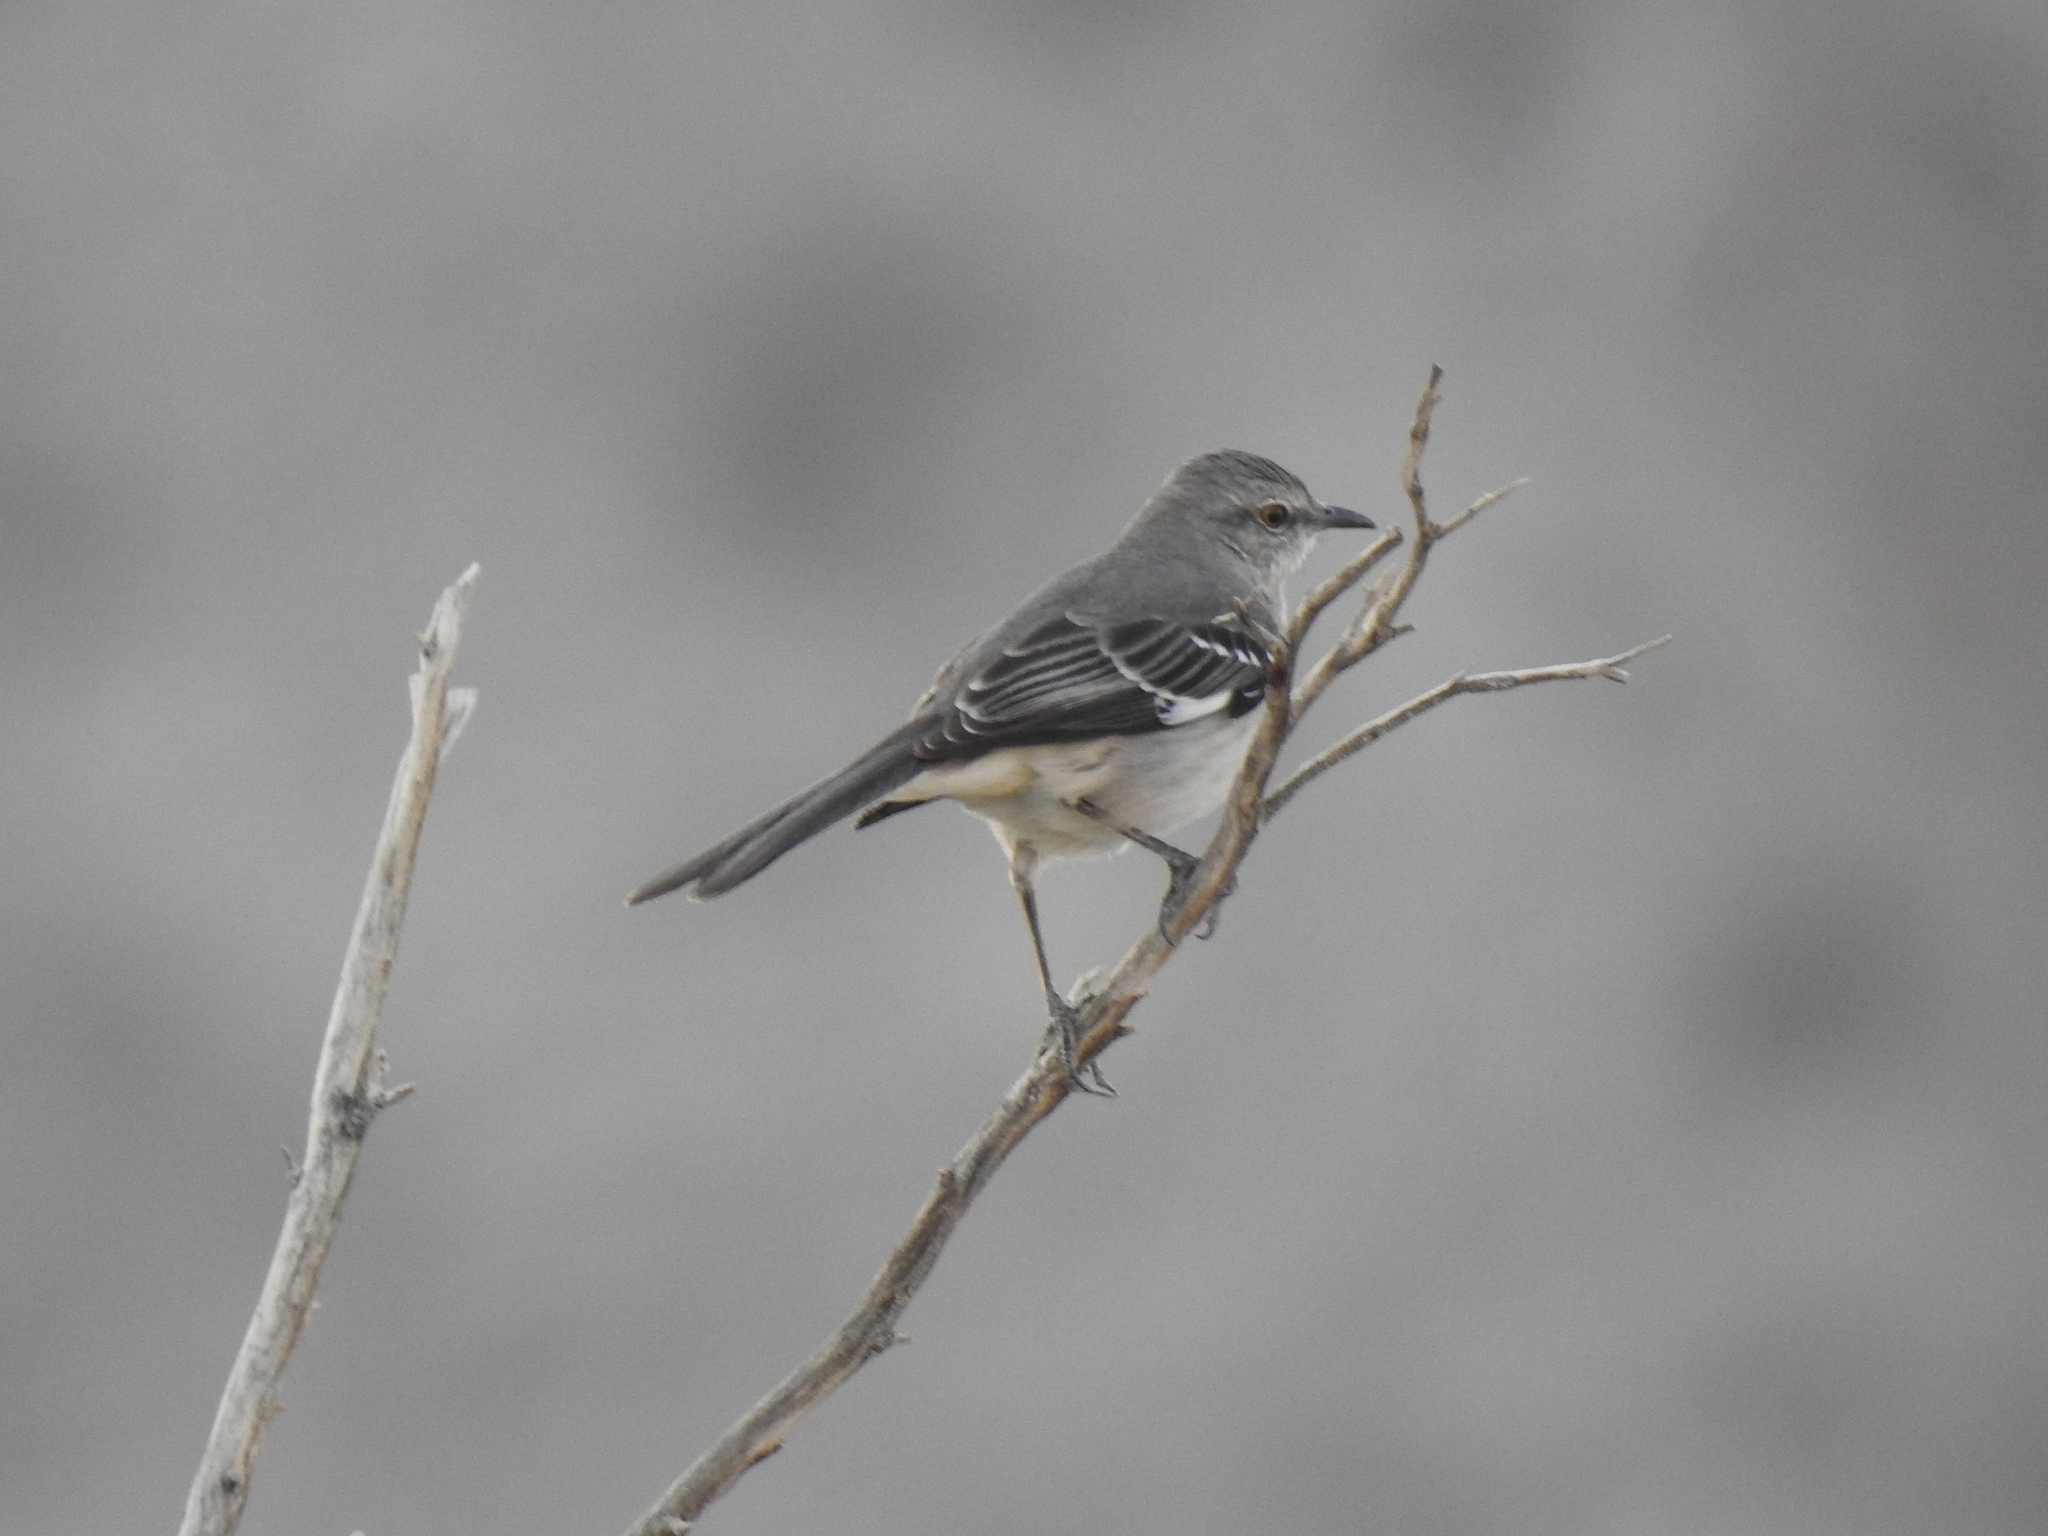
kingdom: Animalia
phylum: Chordata
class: Aves
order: Passeriformes
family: Mimidae
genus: Mimus
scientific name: Mimus polyglottos
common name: Northern mockingbird
